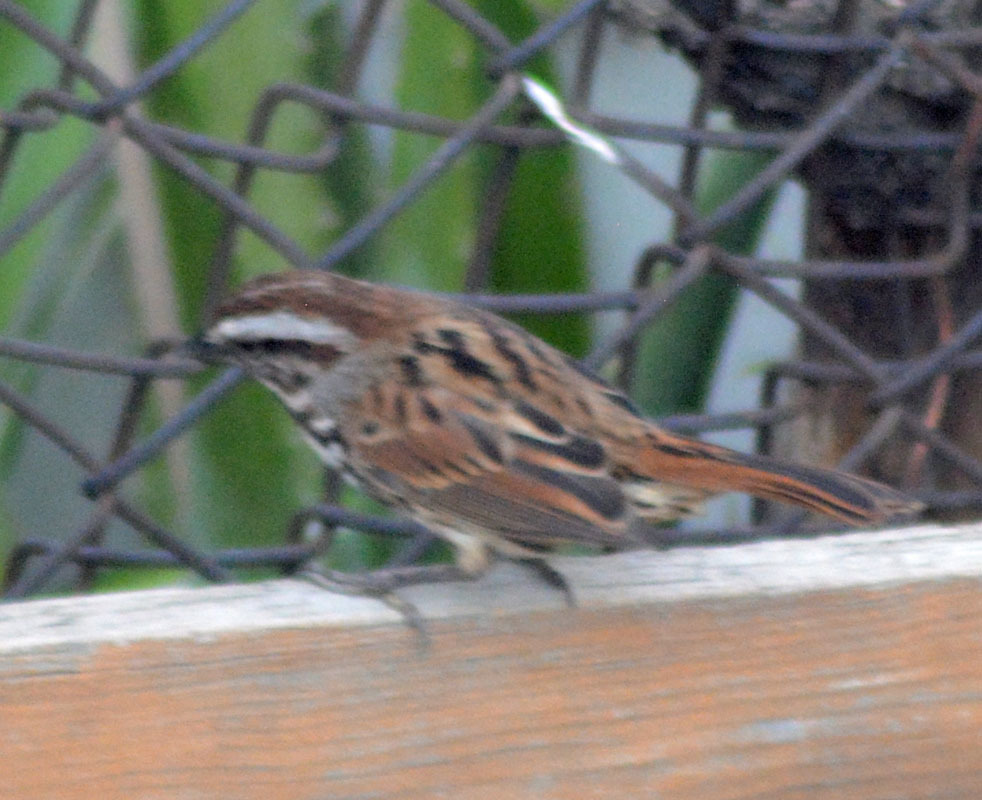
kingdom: Animalia
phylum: Chordata
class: Aves
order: Passeriformes
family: Passerellidae
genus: Melospiza
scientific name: Melospiza melodia
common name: Song sparrow
